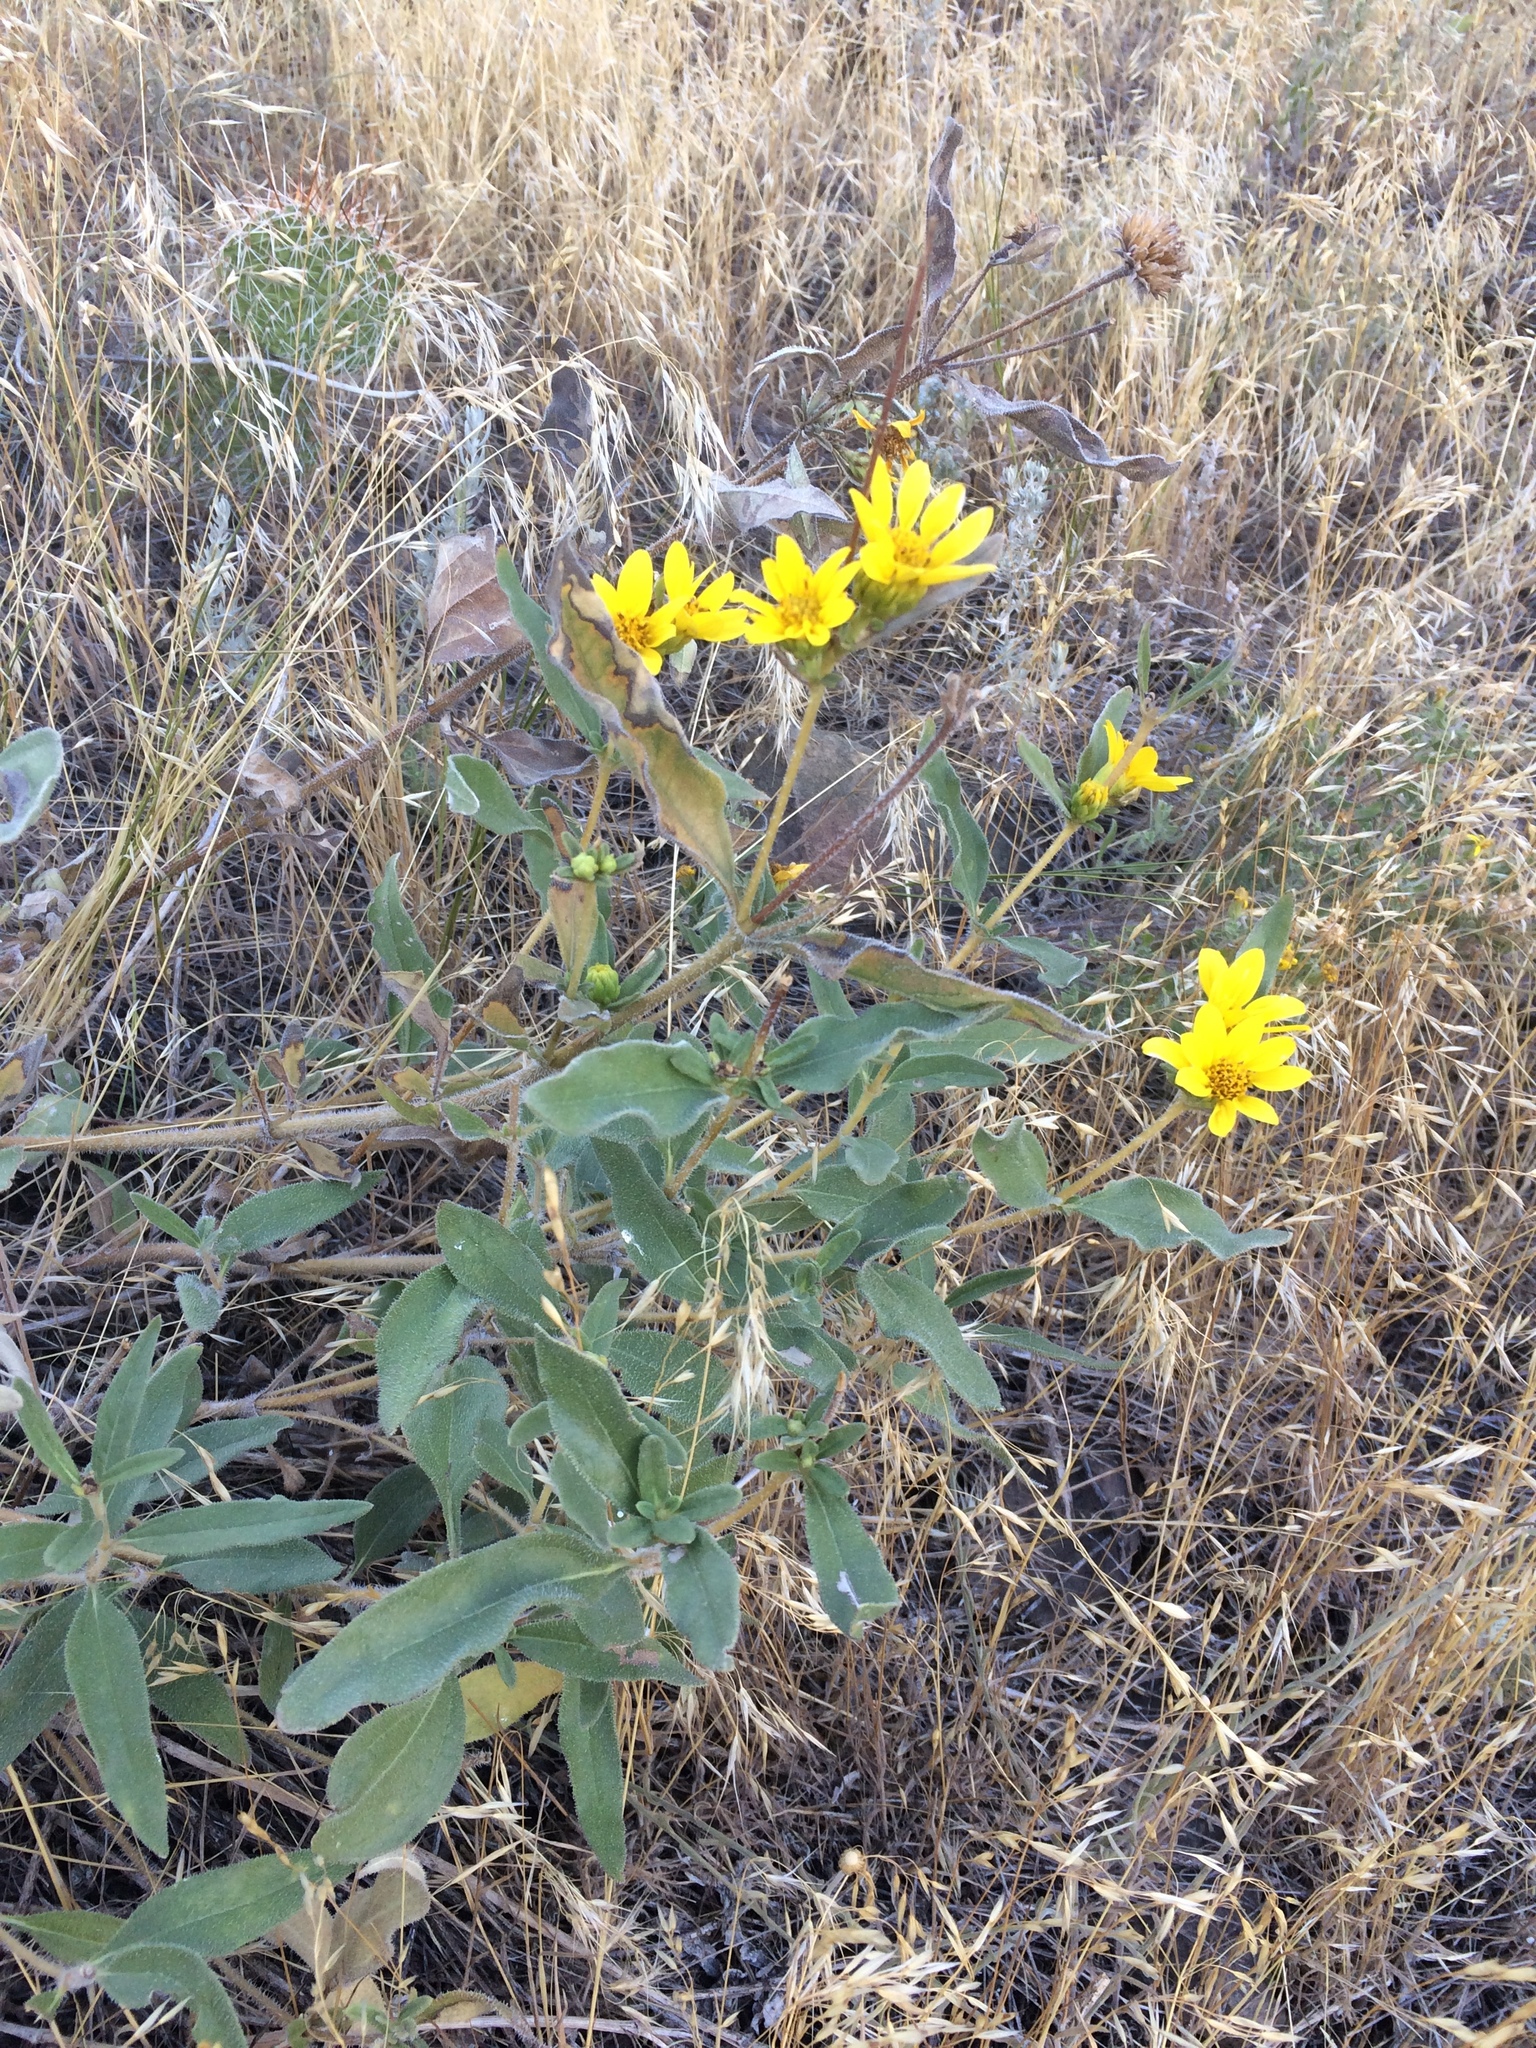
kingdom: Plantae
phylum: Tracheophyta
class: Magnoliopsida
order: Asterales
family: Asteraceae
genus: Helianthus
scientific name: Helianthus pumilus
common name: Dwarf sunflower
